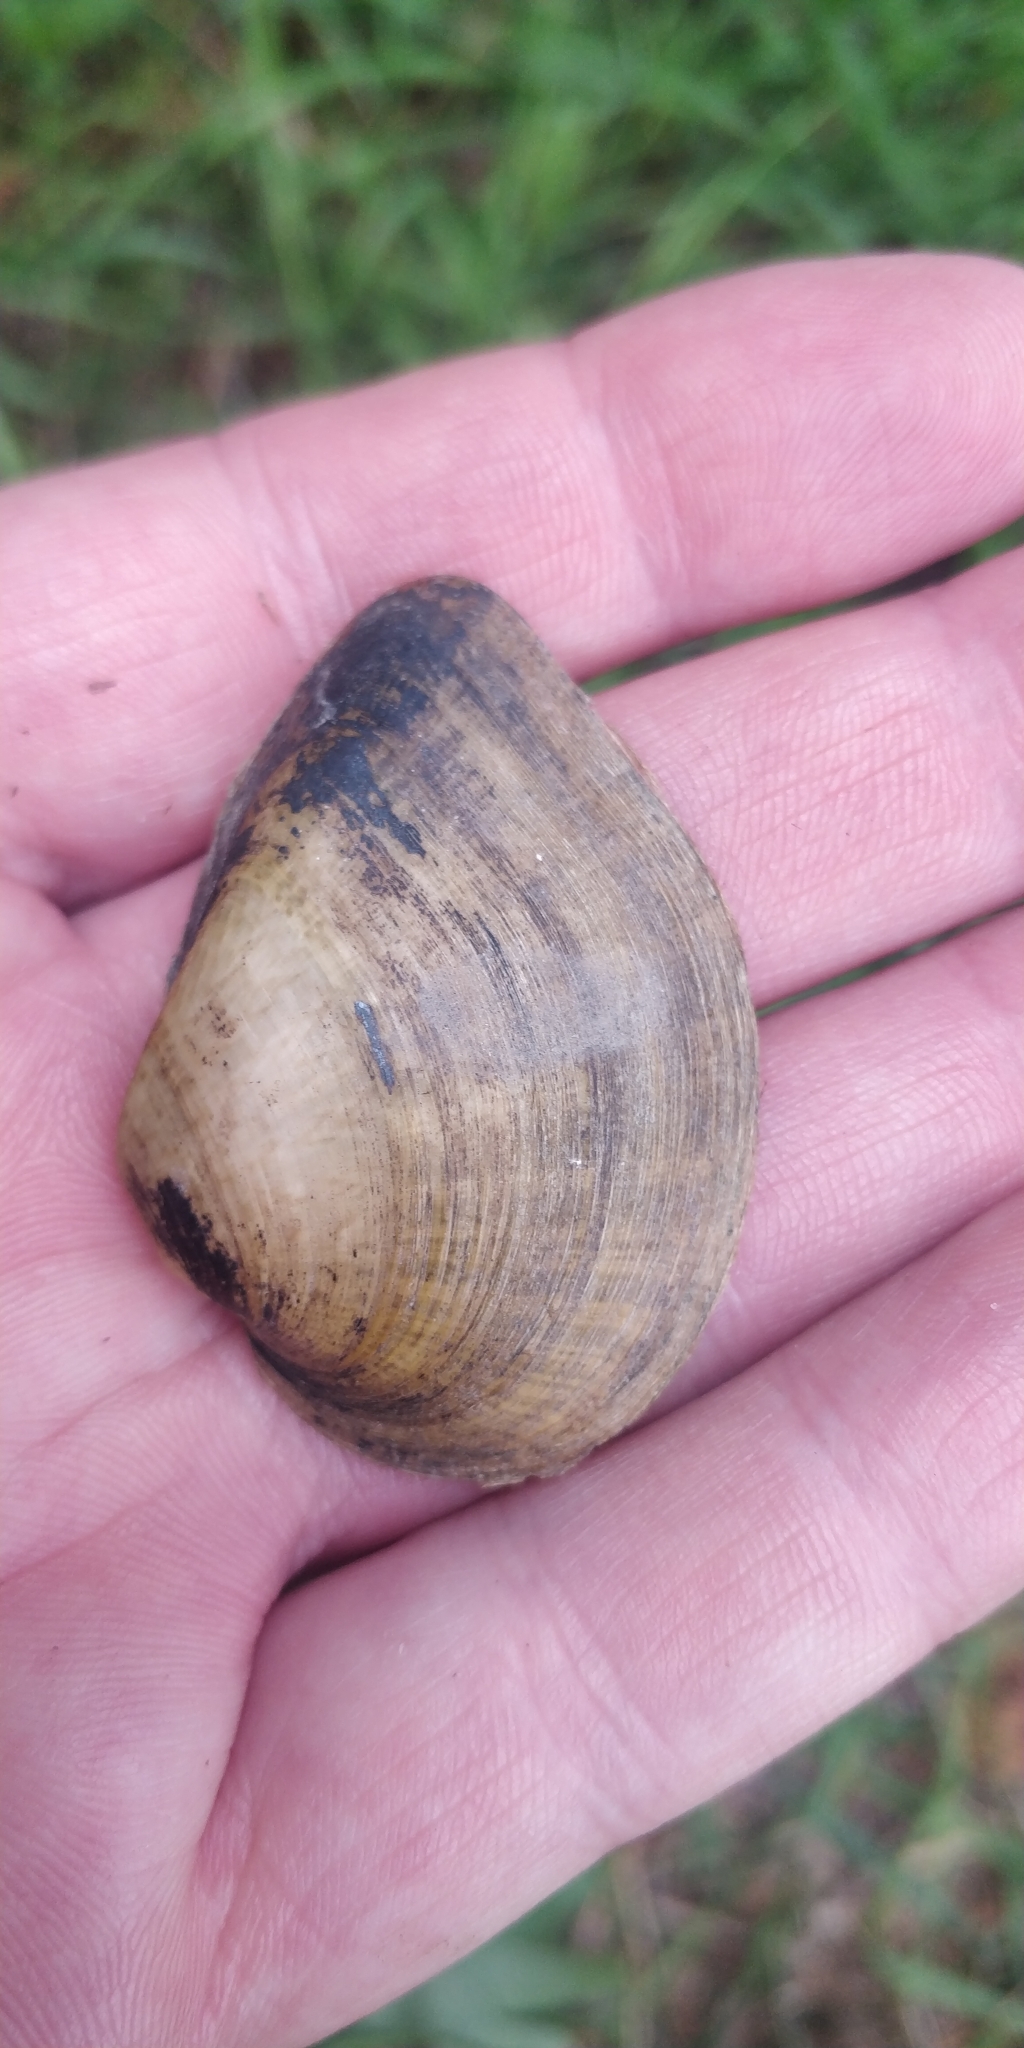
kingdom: Animalia
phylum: Mollusca
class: Bivalvia
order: Unionida
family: Unionidae
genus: Truncilla
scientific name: Truncilla truncata
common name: Deertoe
